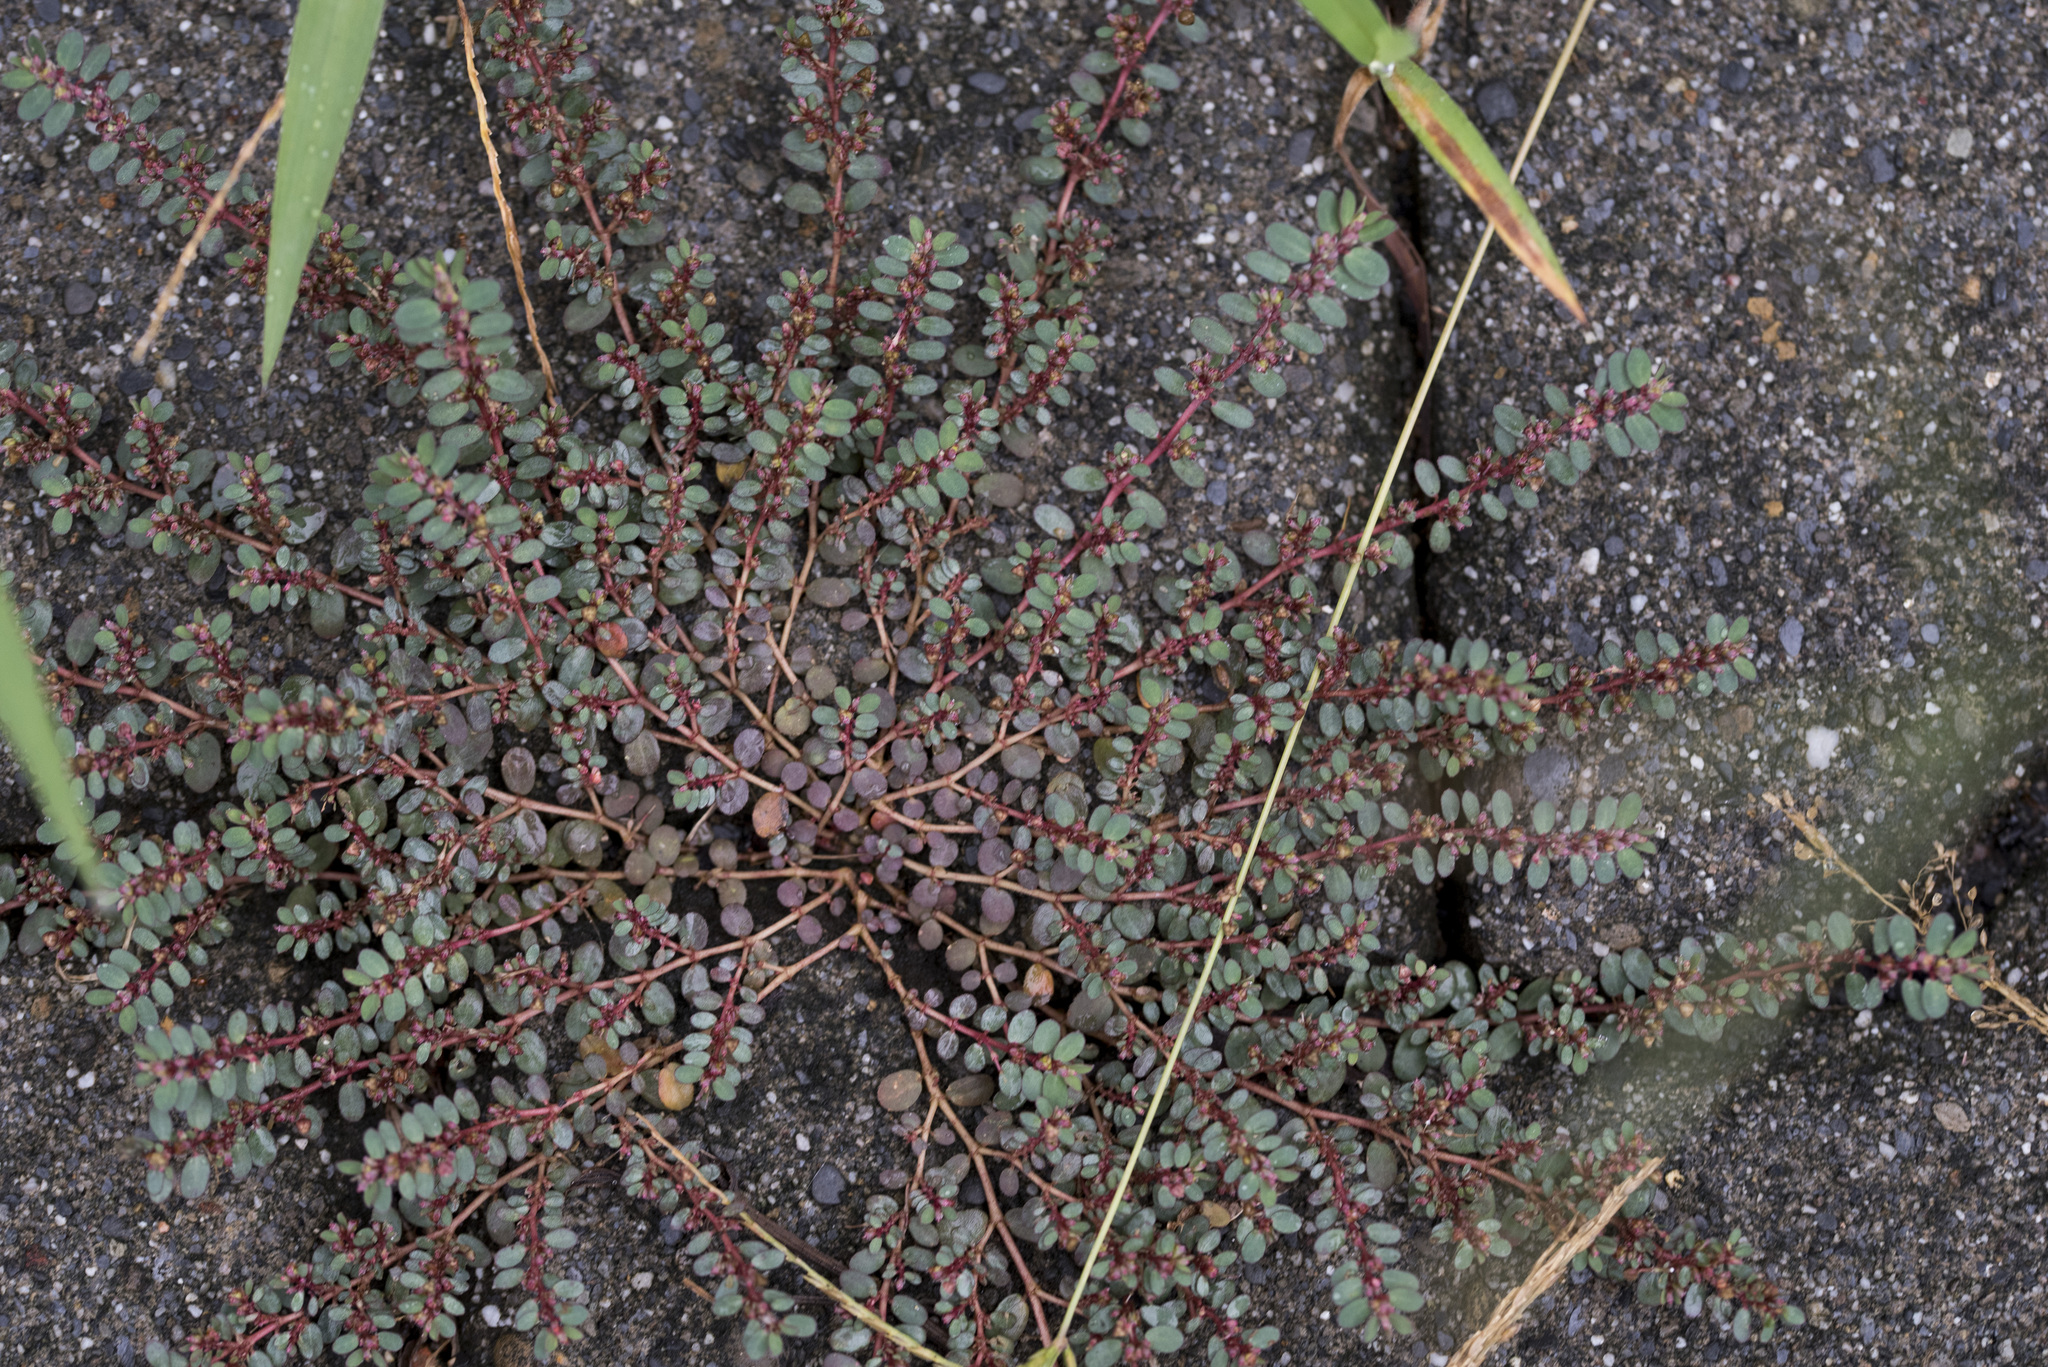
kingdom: Plantae
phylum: Tracheophyta
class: Magnoliopsida
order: Malpighiales
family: Euphorbiaceae
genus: Euphorbia
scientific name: Euphorbia thymifolia
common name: Gulf sandmat
